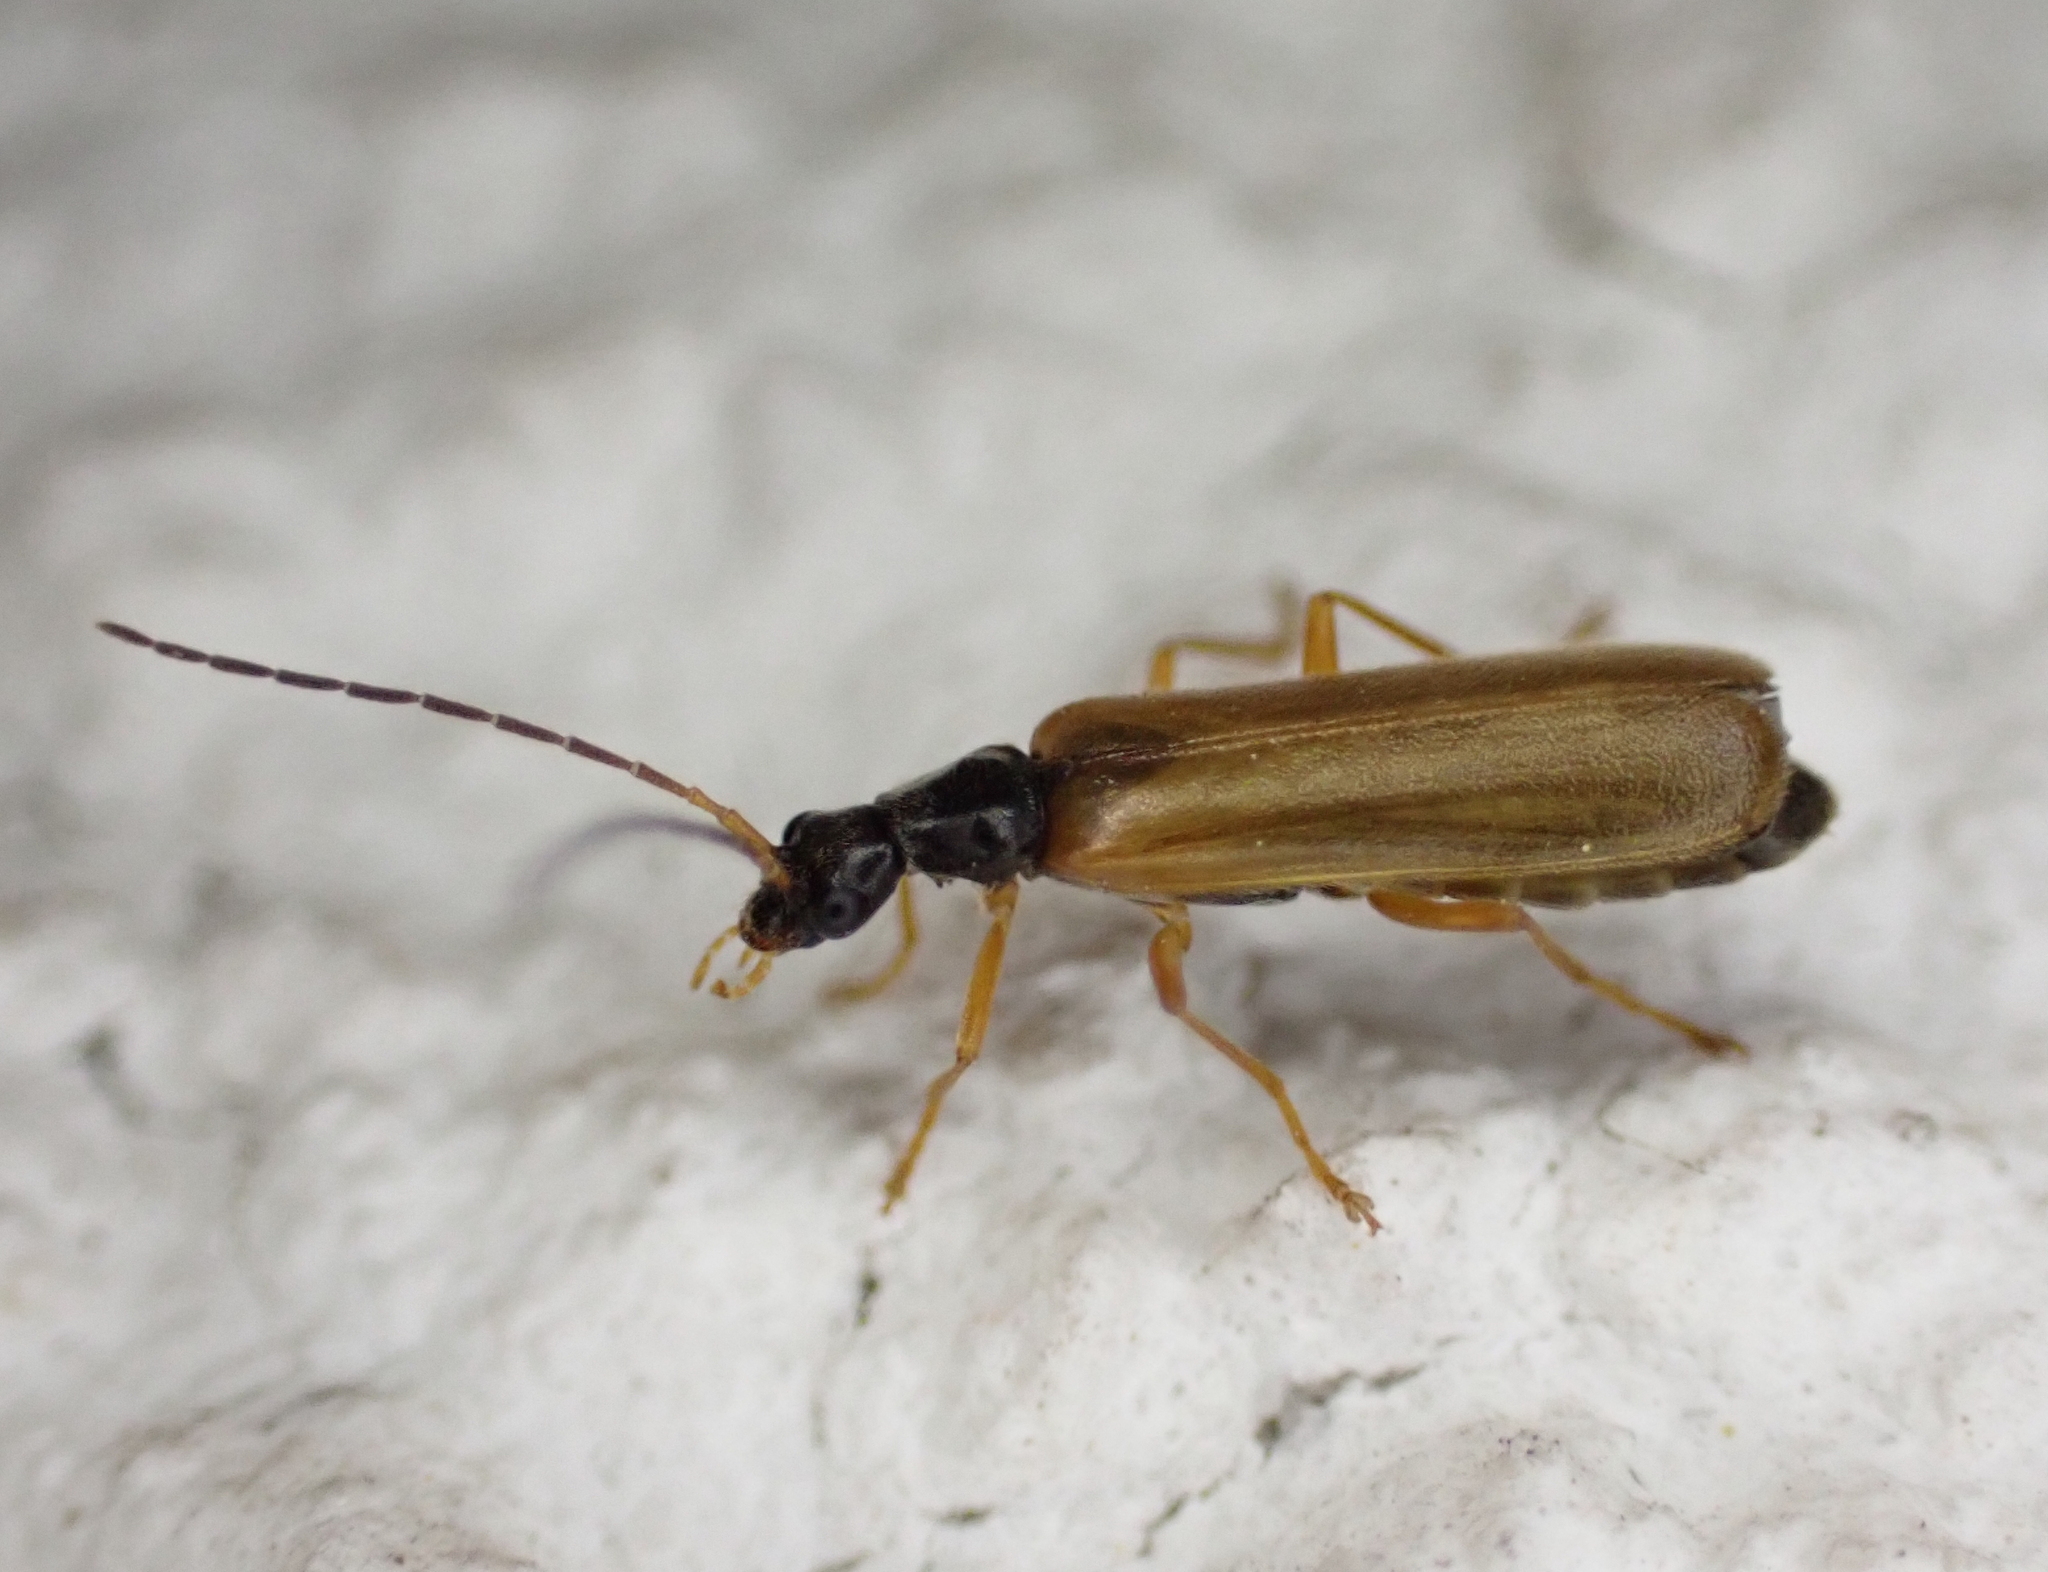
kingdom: Animalia
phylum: Arthropoda
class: Insecta
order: Coleoptera
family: Cantharidae
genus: Rhagonycha
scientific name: Rhagonycha lignosa
